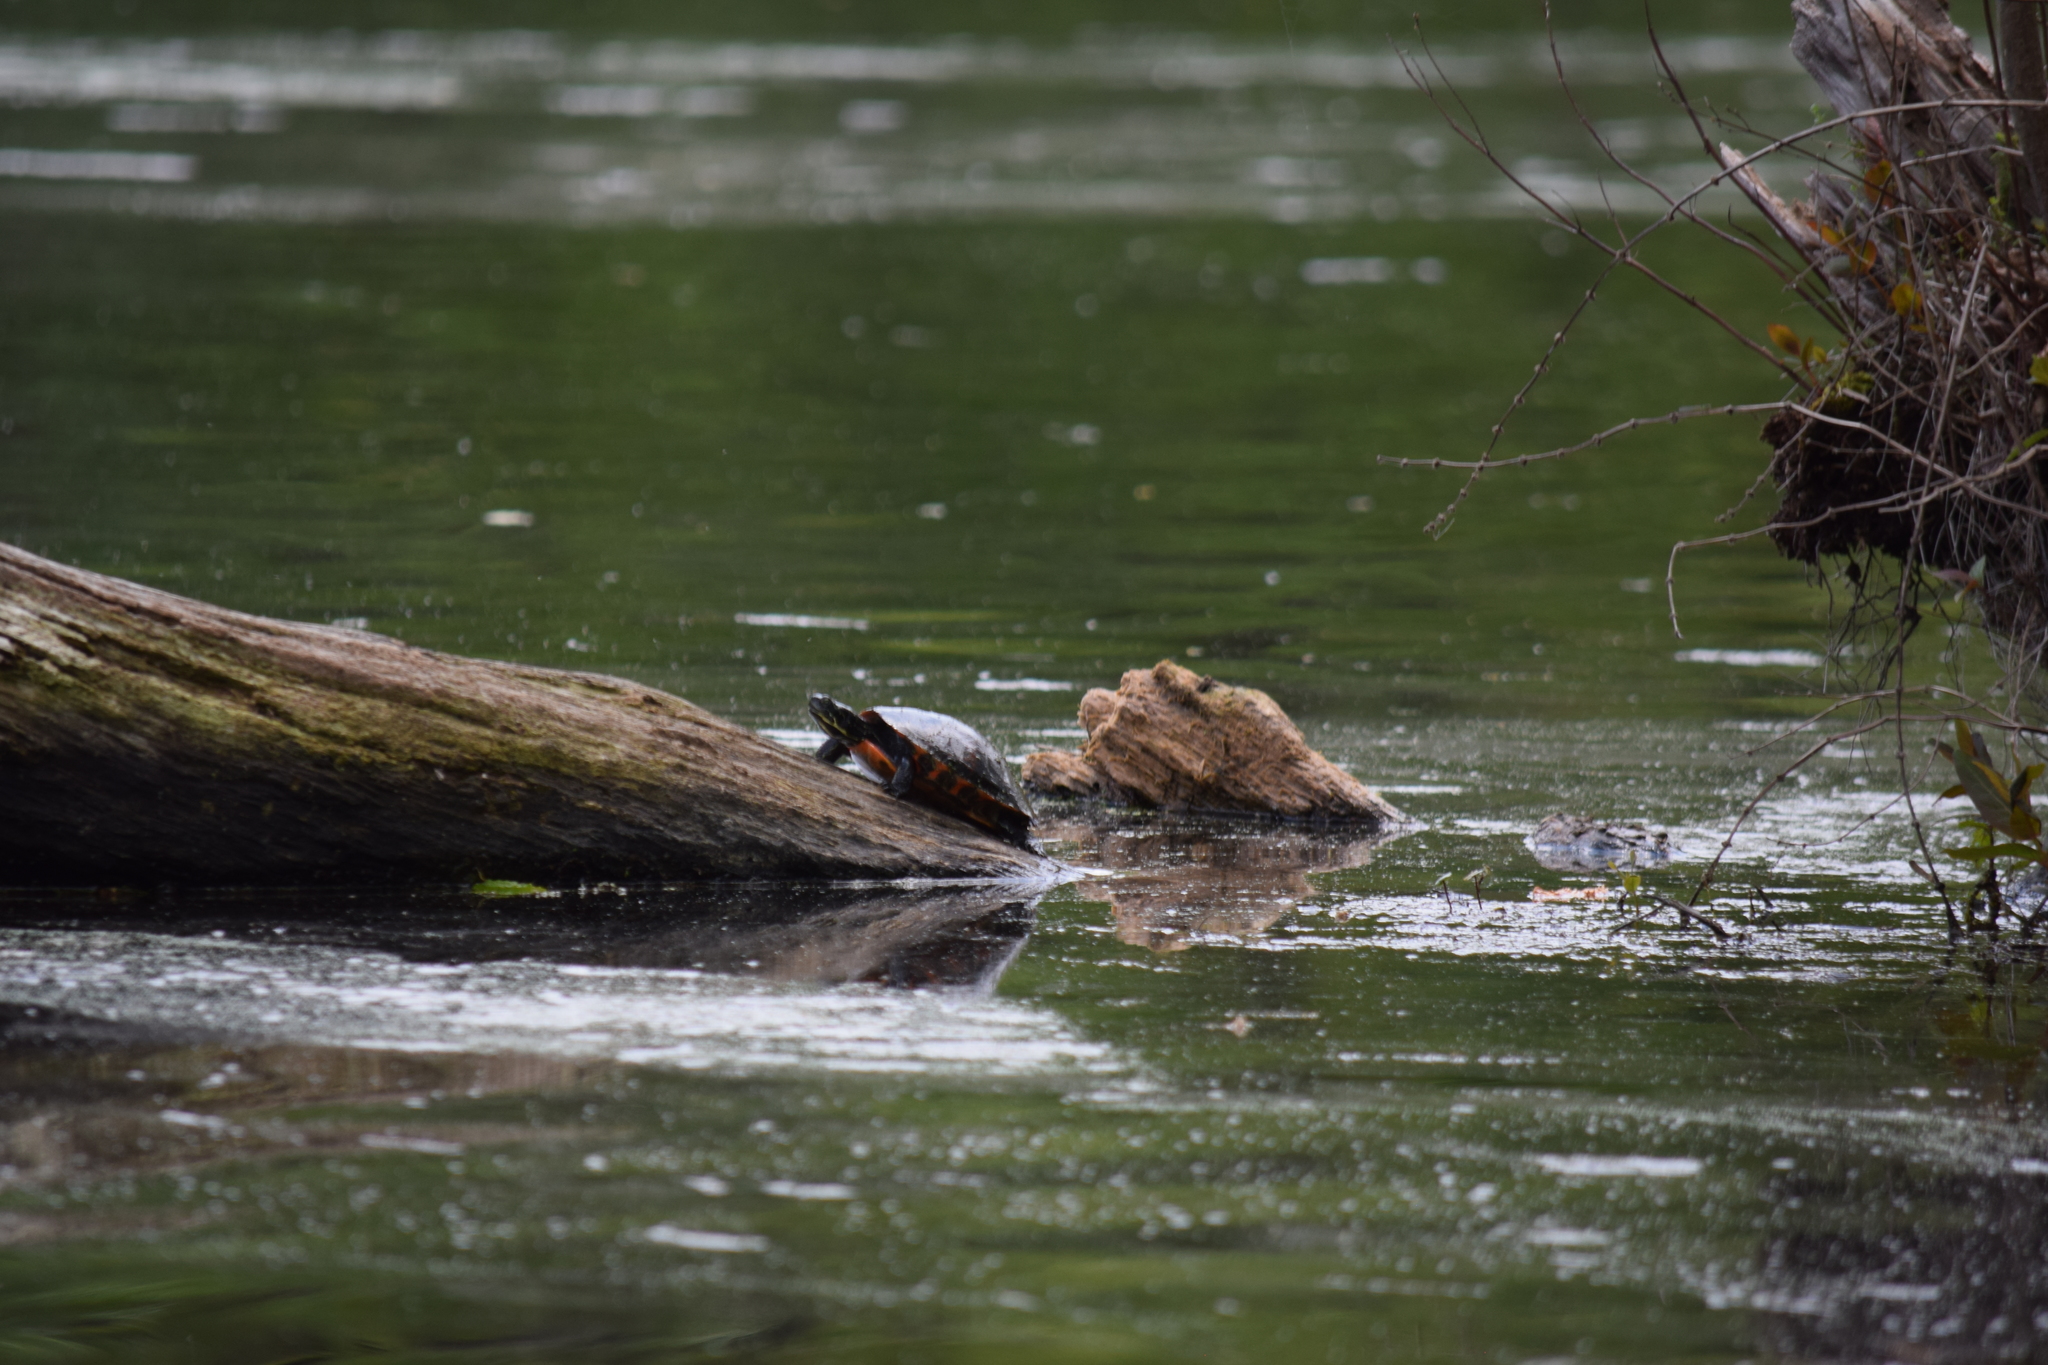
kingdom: Animalia
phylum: Chordata
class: Testudines
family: Emydidae
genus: Pseudemys
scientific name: Pseudemys rubriventris
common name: American red-bellied turtle
